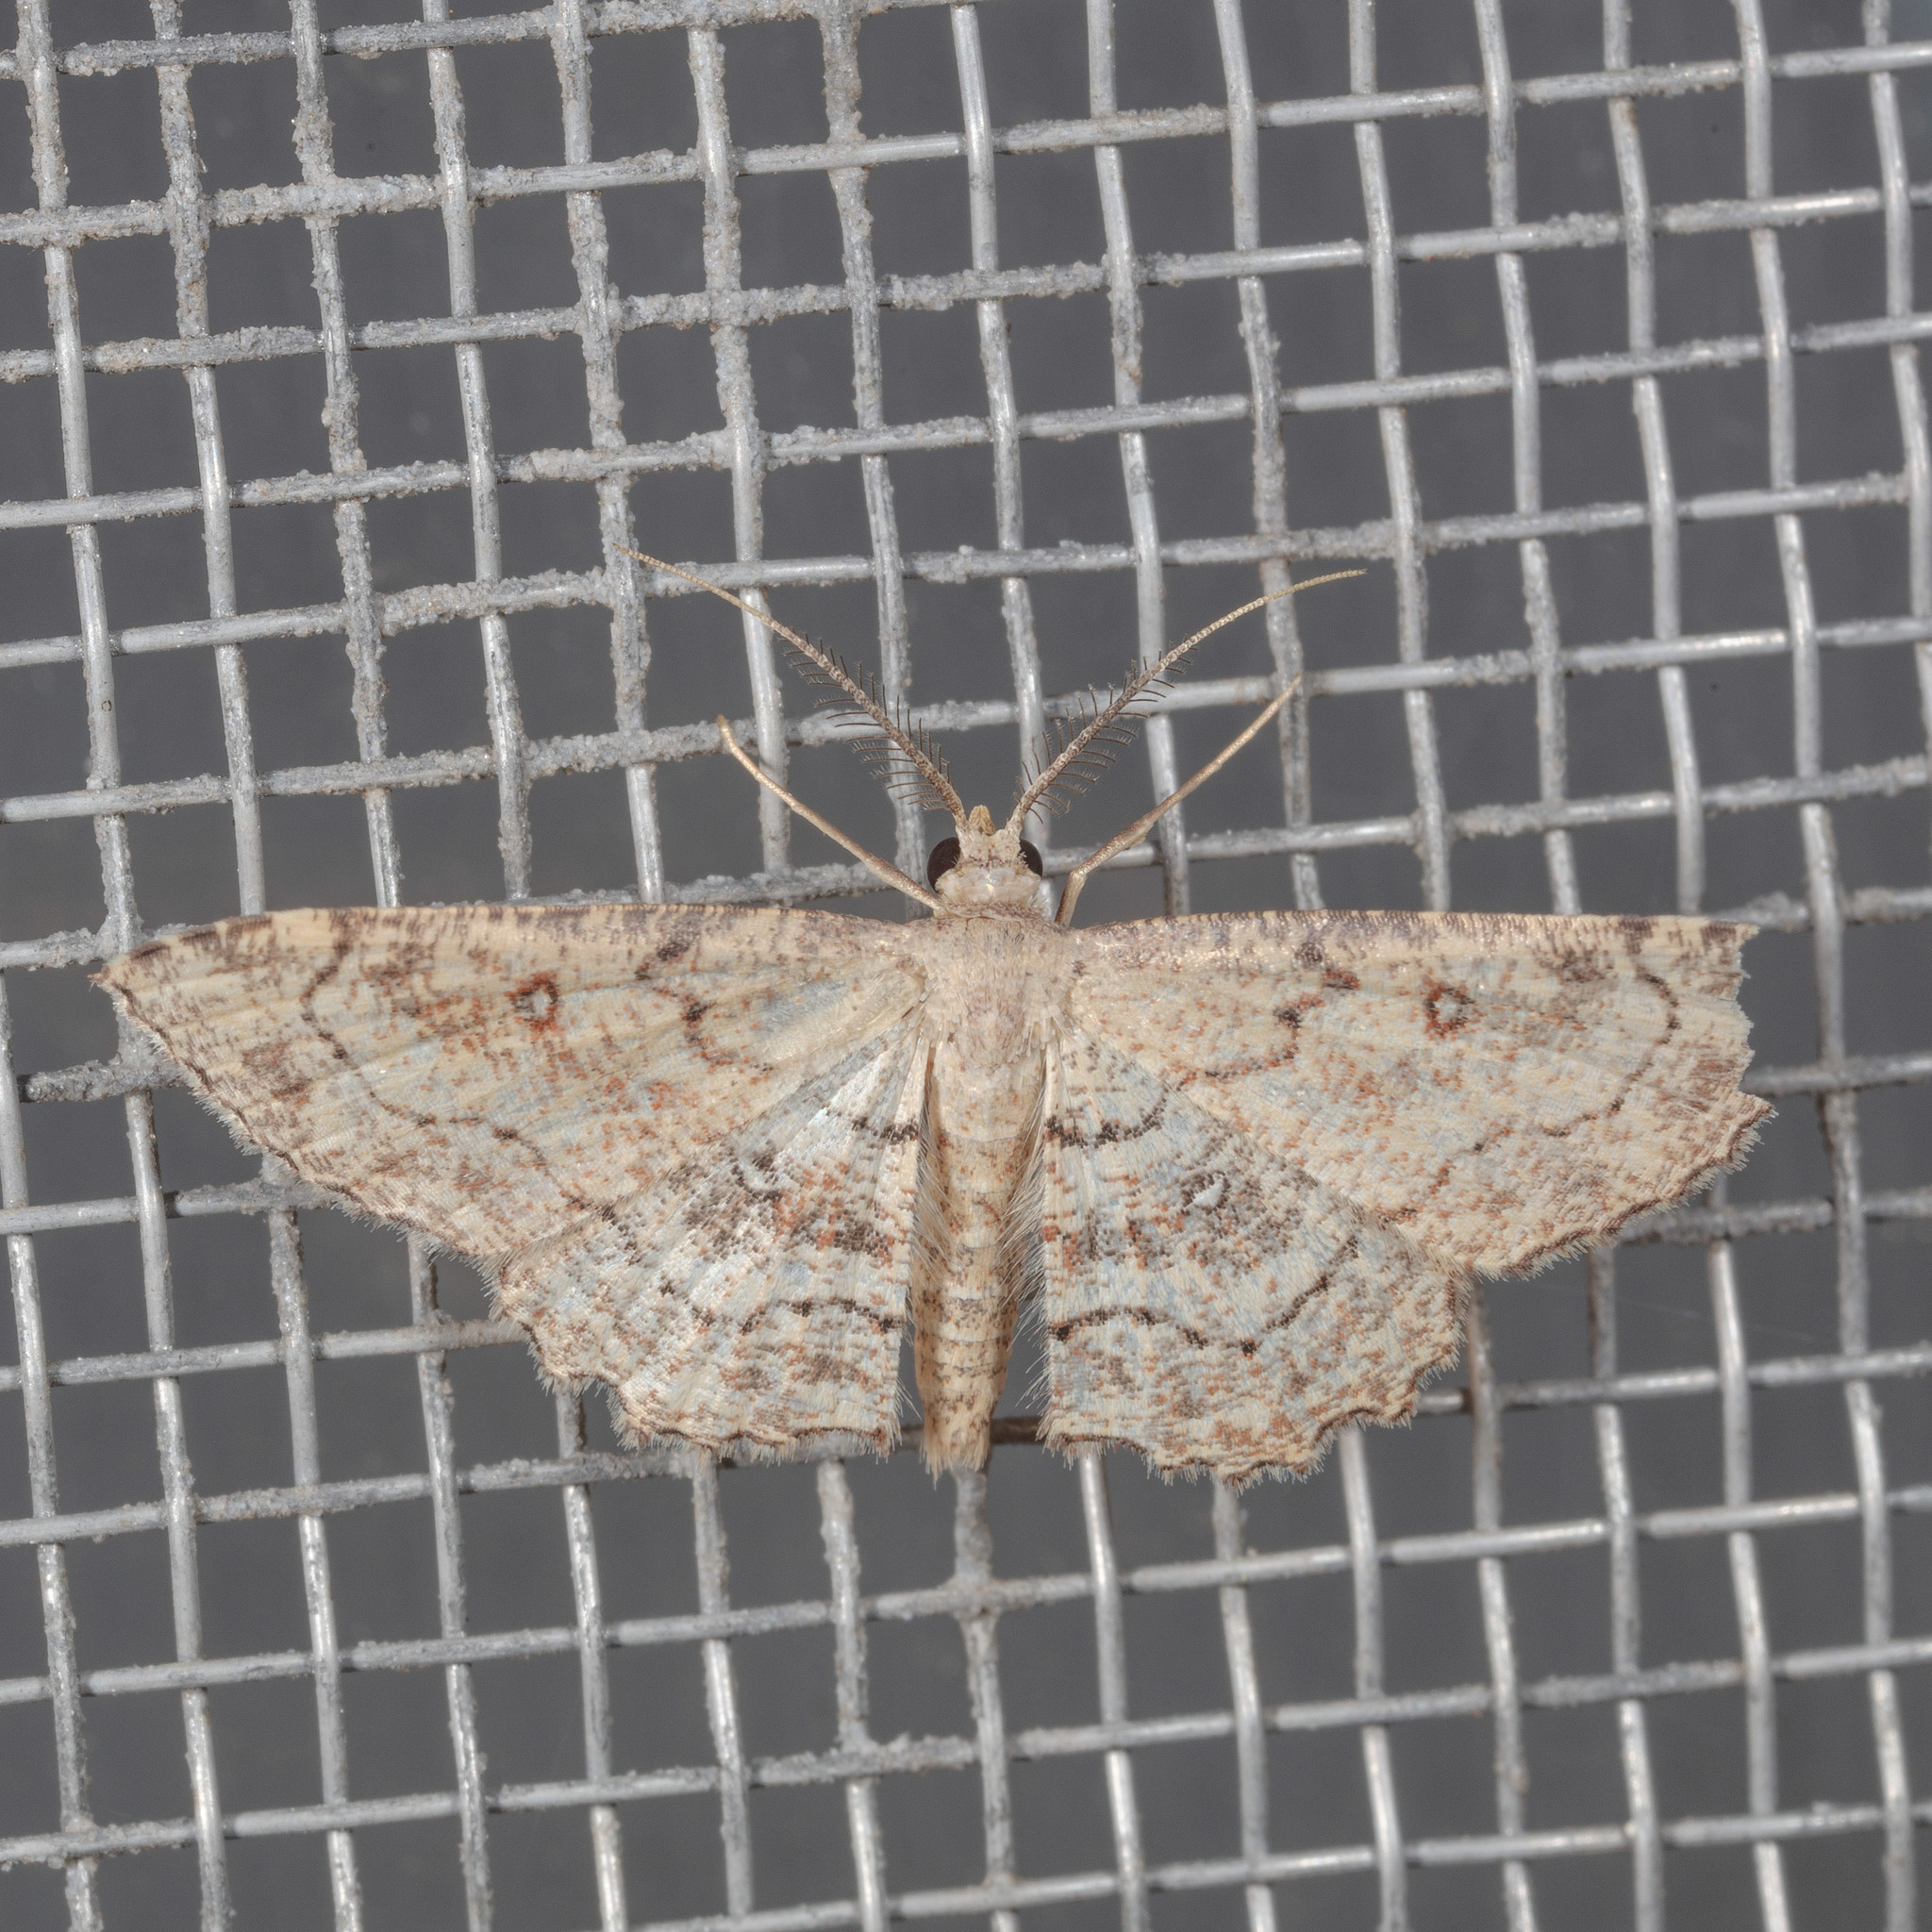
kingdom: Animalia
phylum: Arthropoda
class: Insecta
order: Lepidoptera
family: Geometridae
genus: Cyclophora
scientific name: Cyclophora nanaria
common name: Cankerworm
